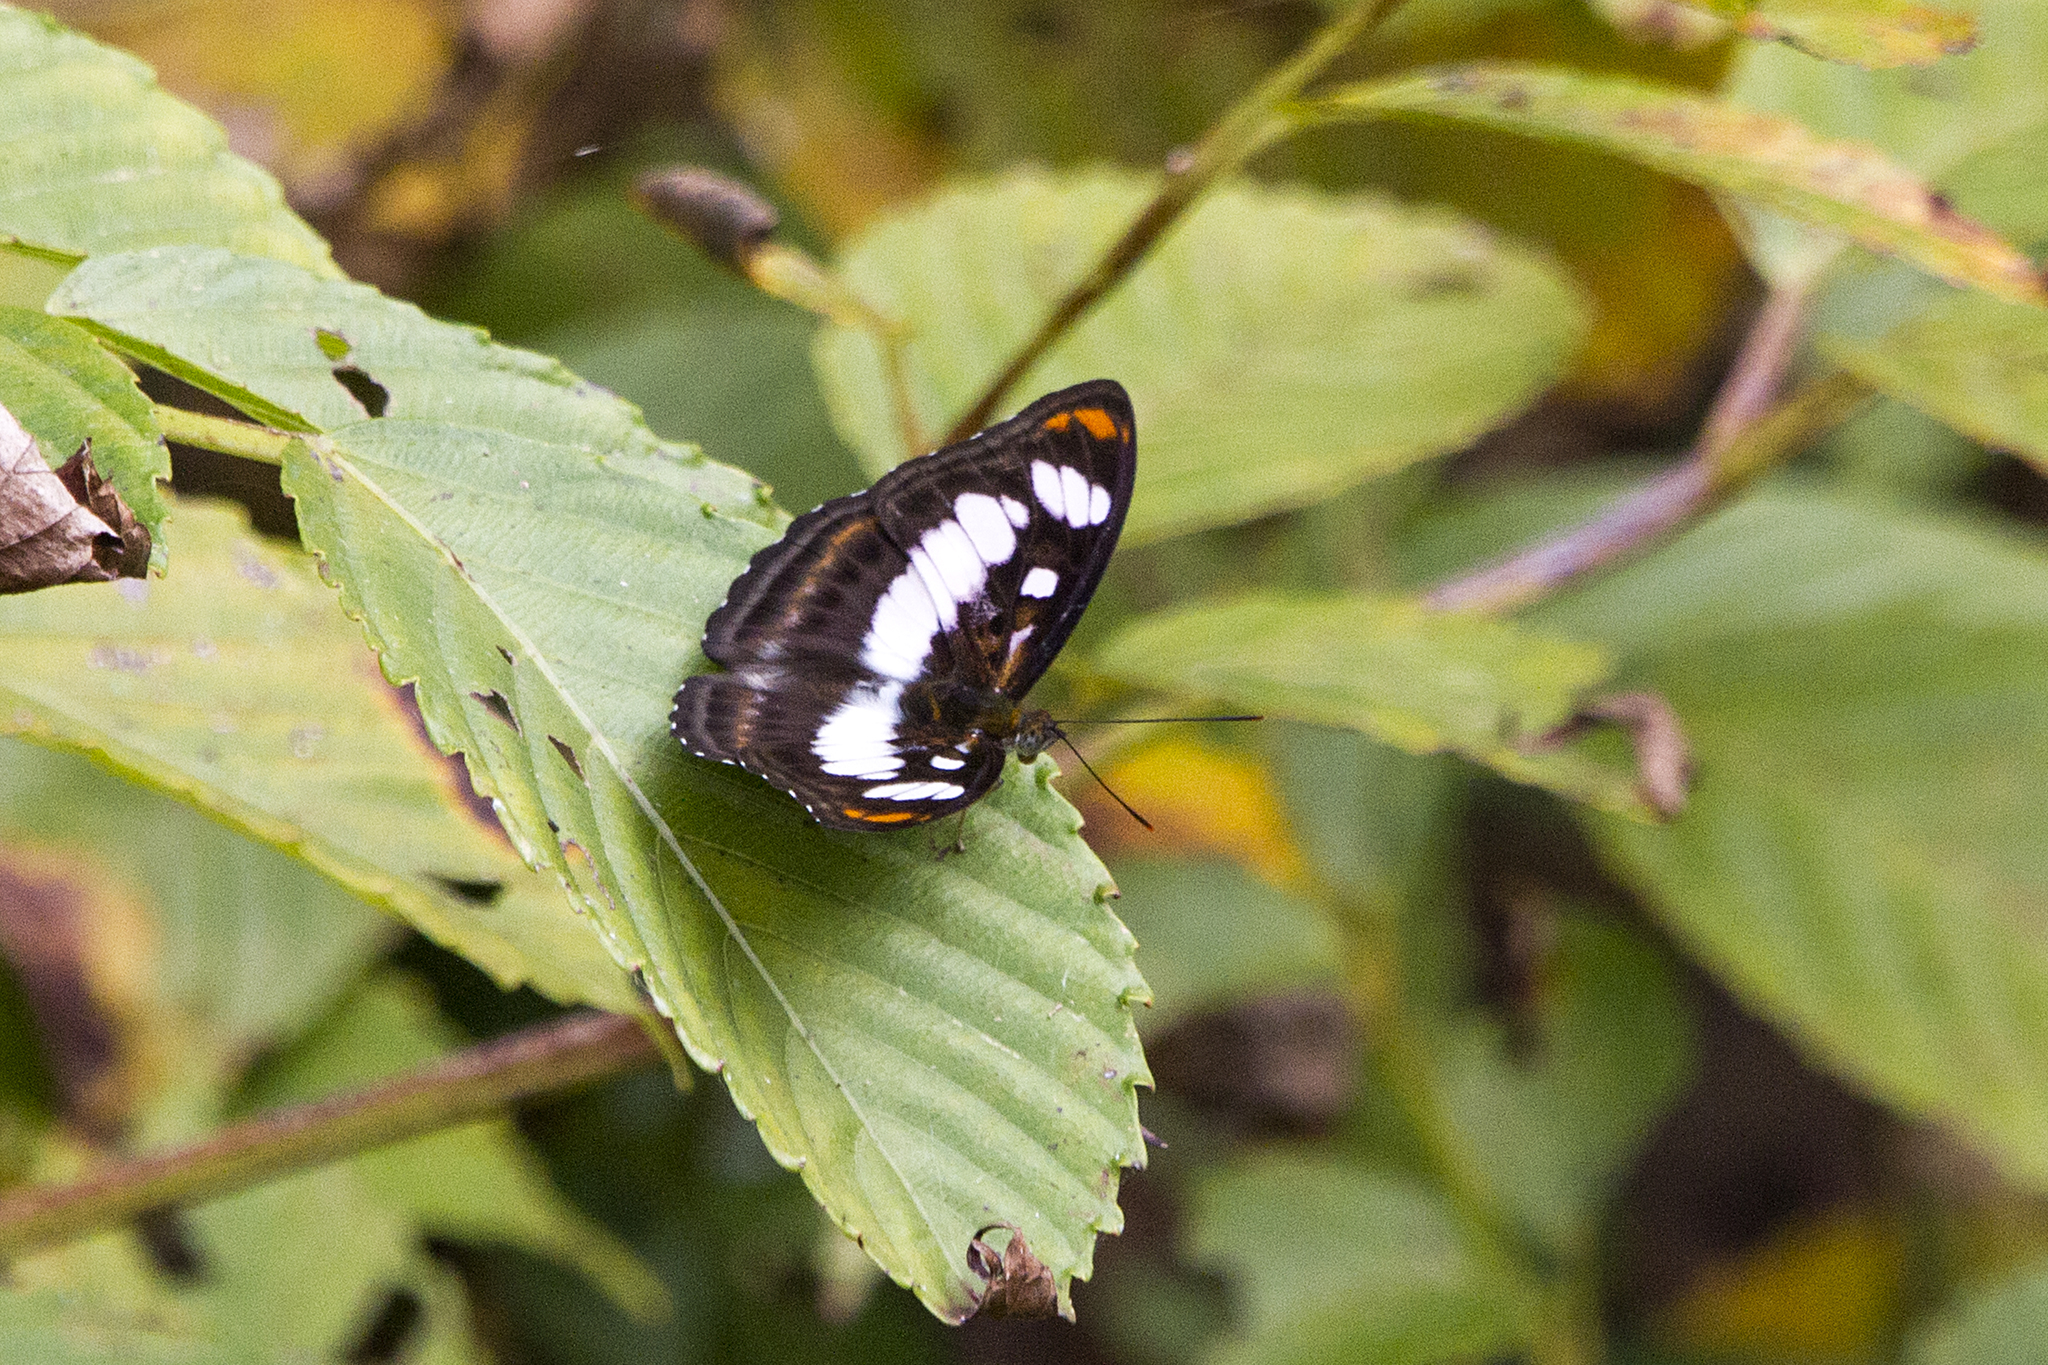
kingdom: Animalia
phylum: Arthropoda
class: Insecta
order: Lepidoptera
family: Nymphalidae
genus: Parathyma
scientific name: Parathyma nefte
